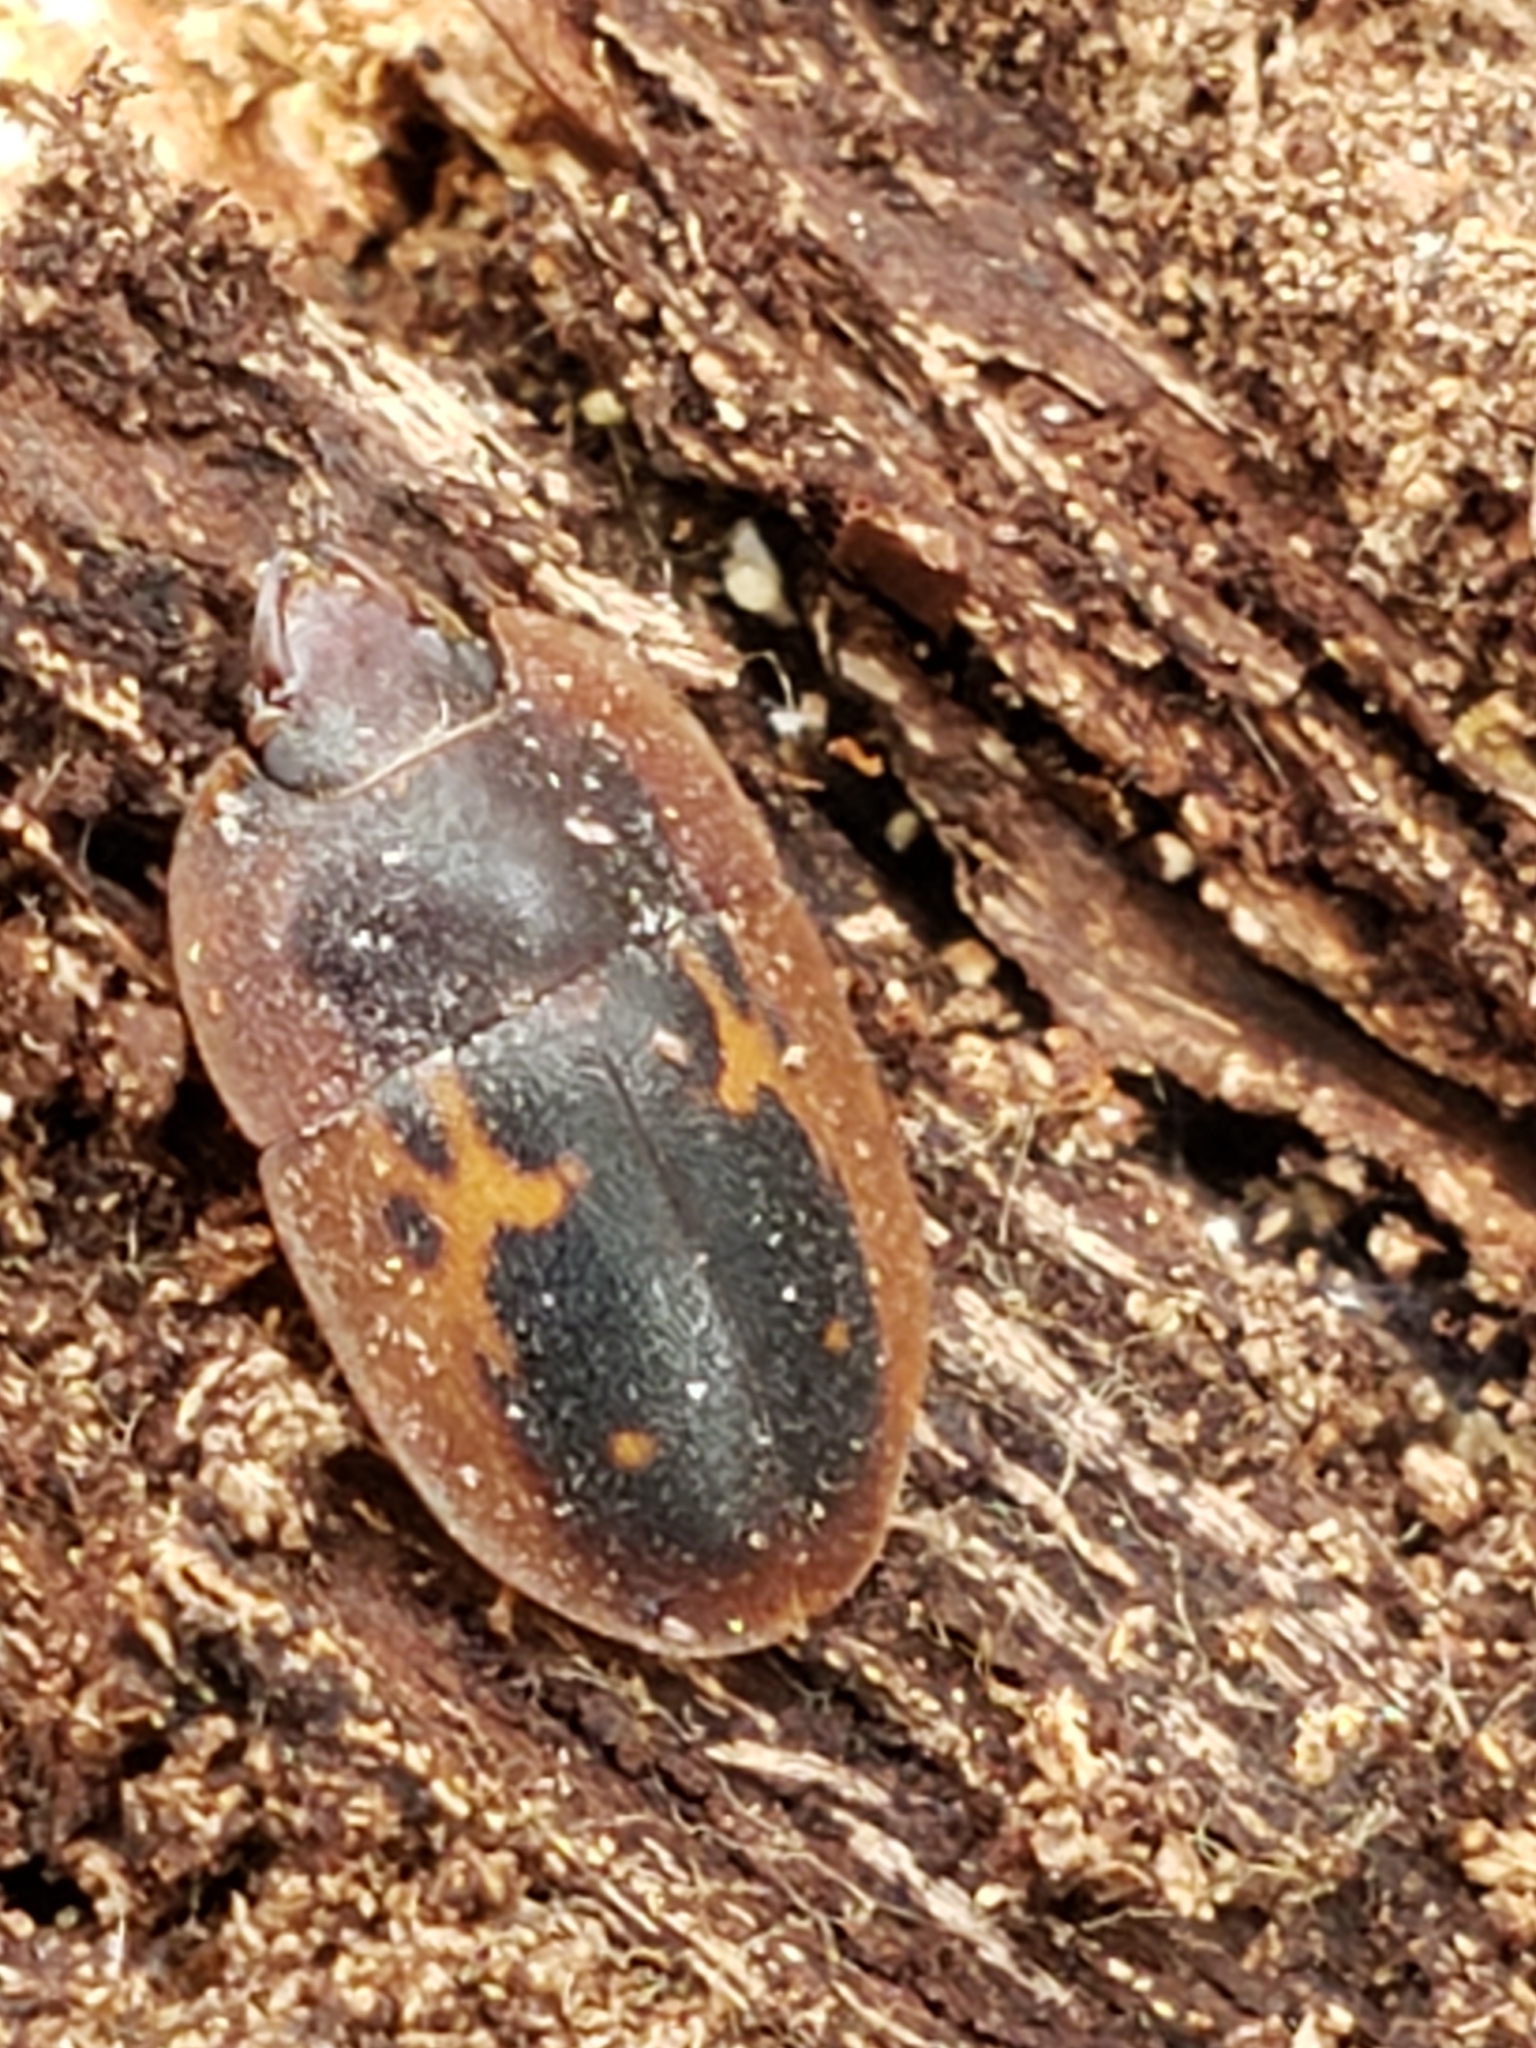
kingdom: Animalia
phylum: Arthropoda
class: Insecta
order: Coleoptera
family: Nitidulidae
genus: Prometopia
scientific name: Prometopia sexmaculata
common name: Six-spotted sap-feeding beetle
